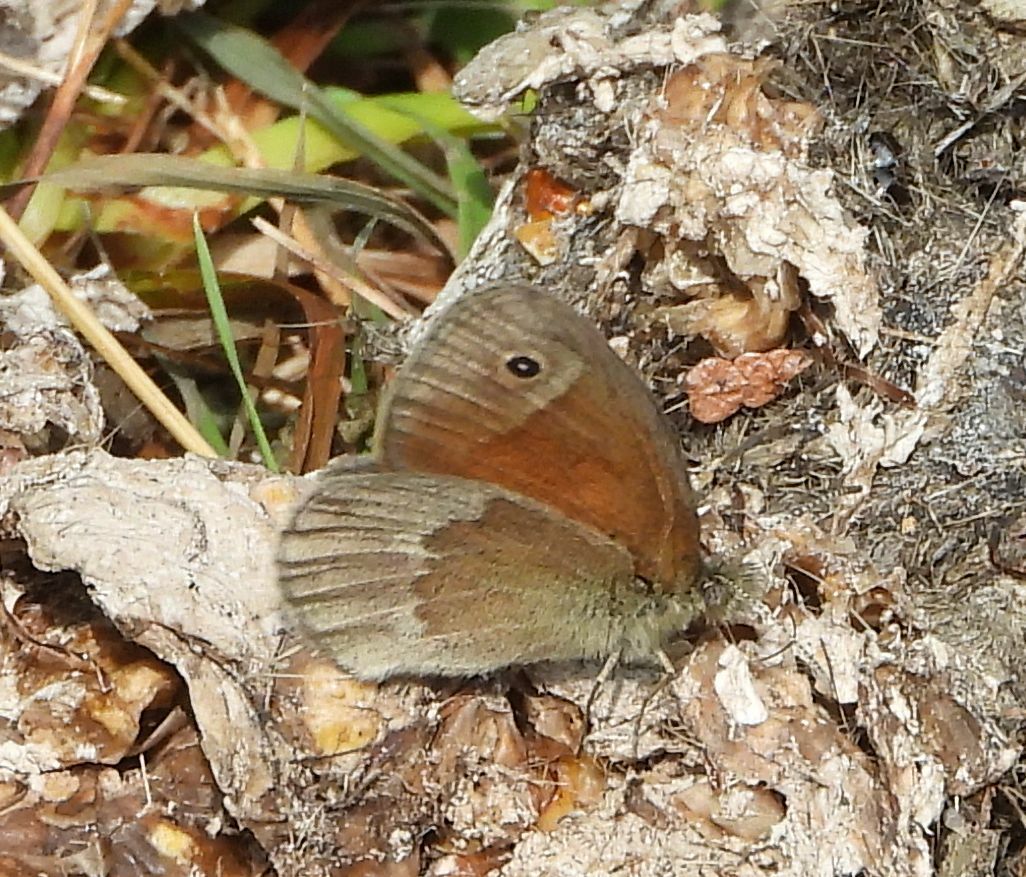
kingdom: Animalia
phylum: Arthropoda
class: Insecta
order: Lepidoptera
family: Nymphalidae
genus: Coenonympha
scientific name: Coenonympha california
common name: Common ringlet
